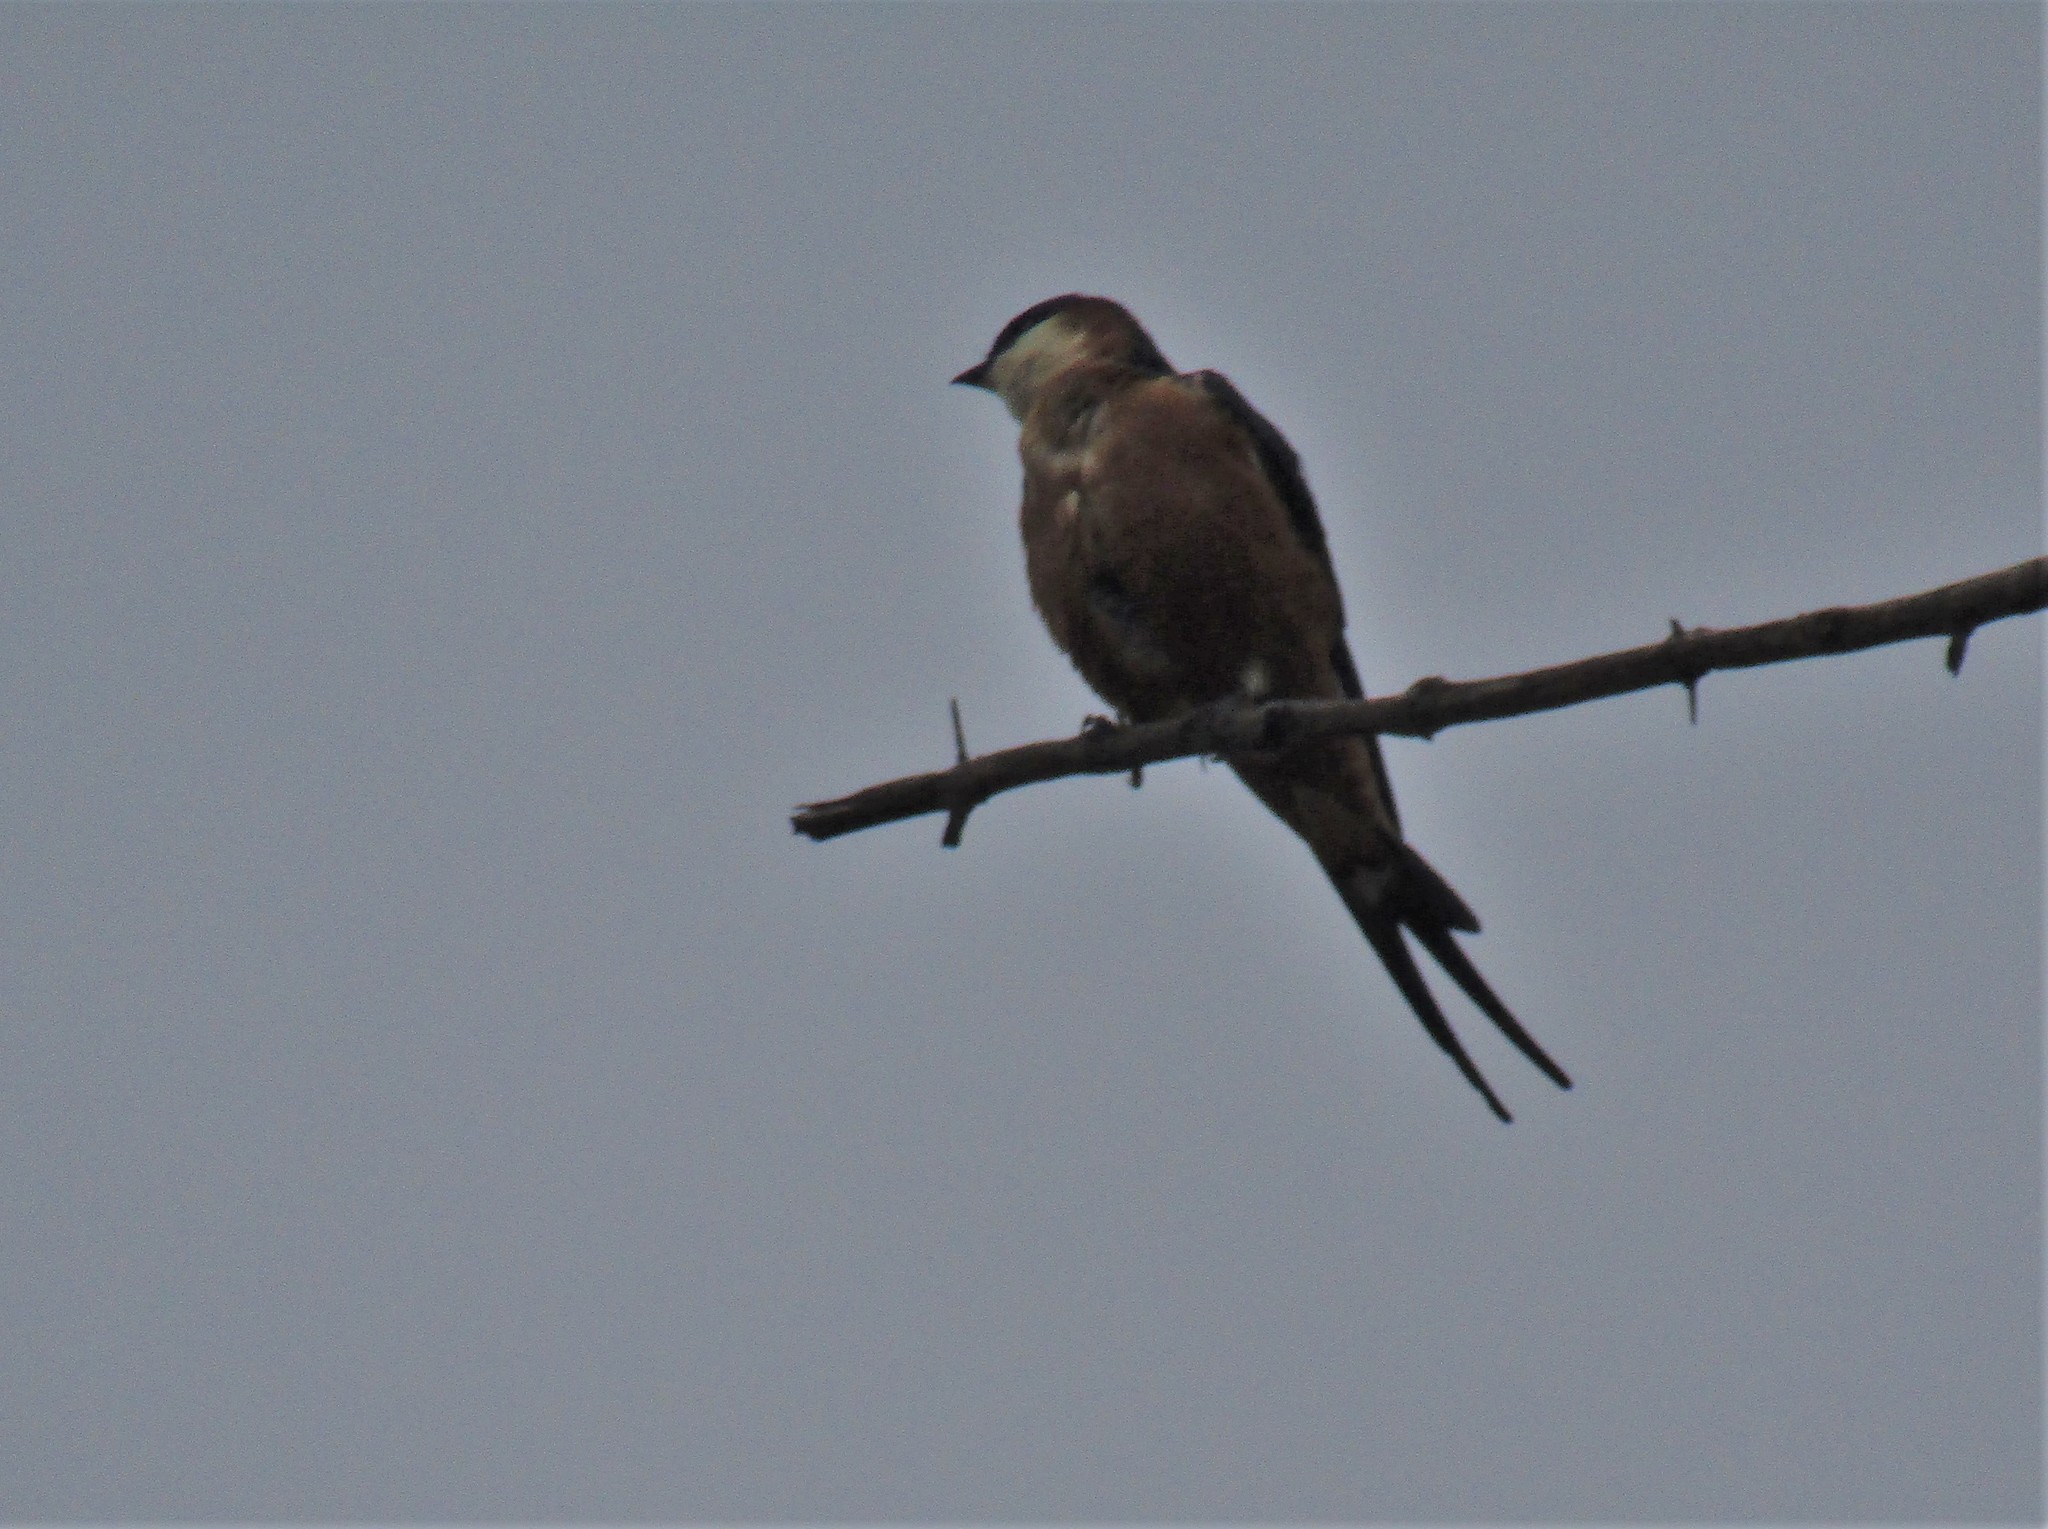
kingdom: Animalia
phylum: Chordata
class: Aves
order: Passeriformes
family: Hirundinidae
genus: Cecropis
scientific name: Cecropis senegalensis
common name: Mosque swallow
